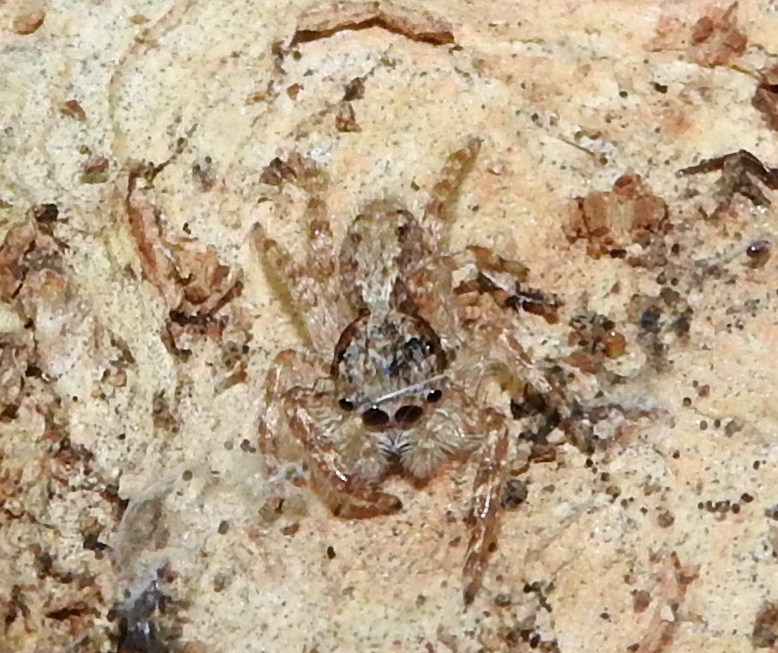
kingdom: Animalia
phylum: Arthropoda
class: Arachnida
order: Araneae
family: Salticidae
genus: Balmaceda
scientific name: Balmaceda
